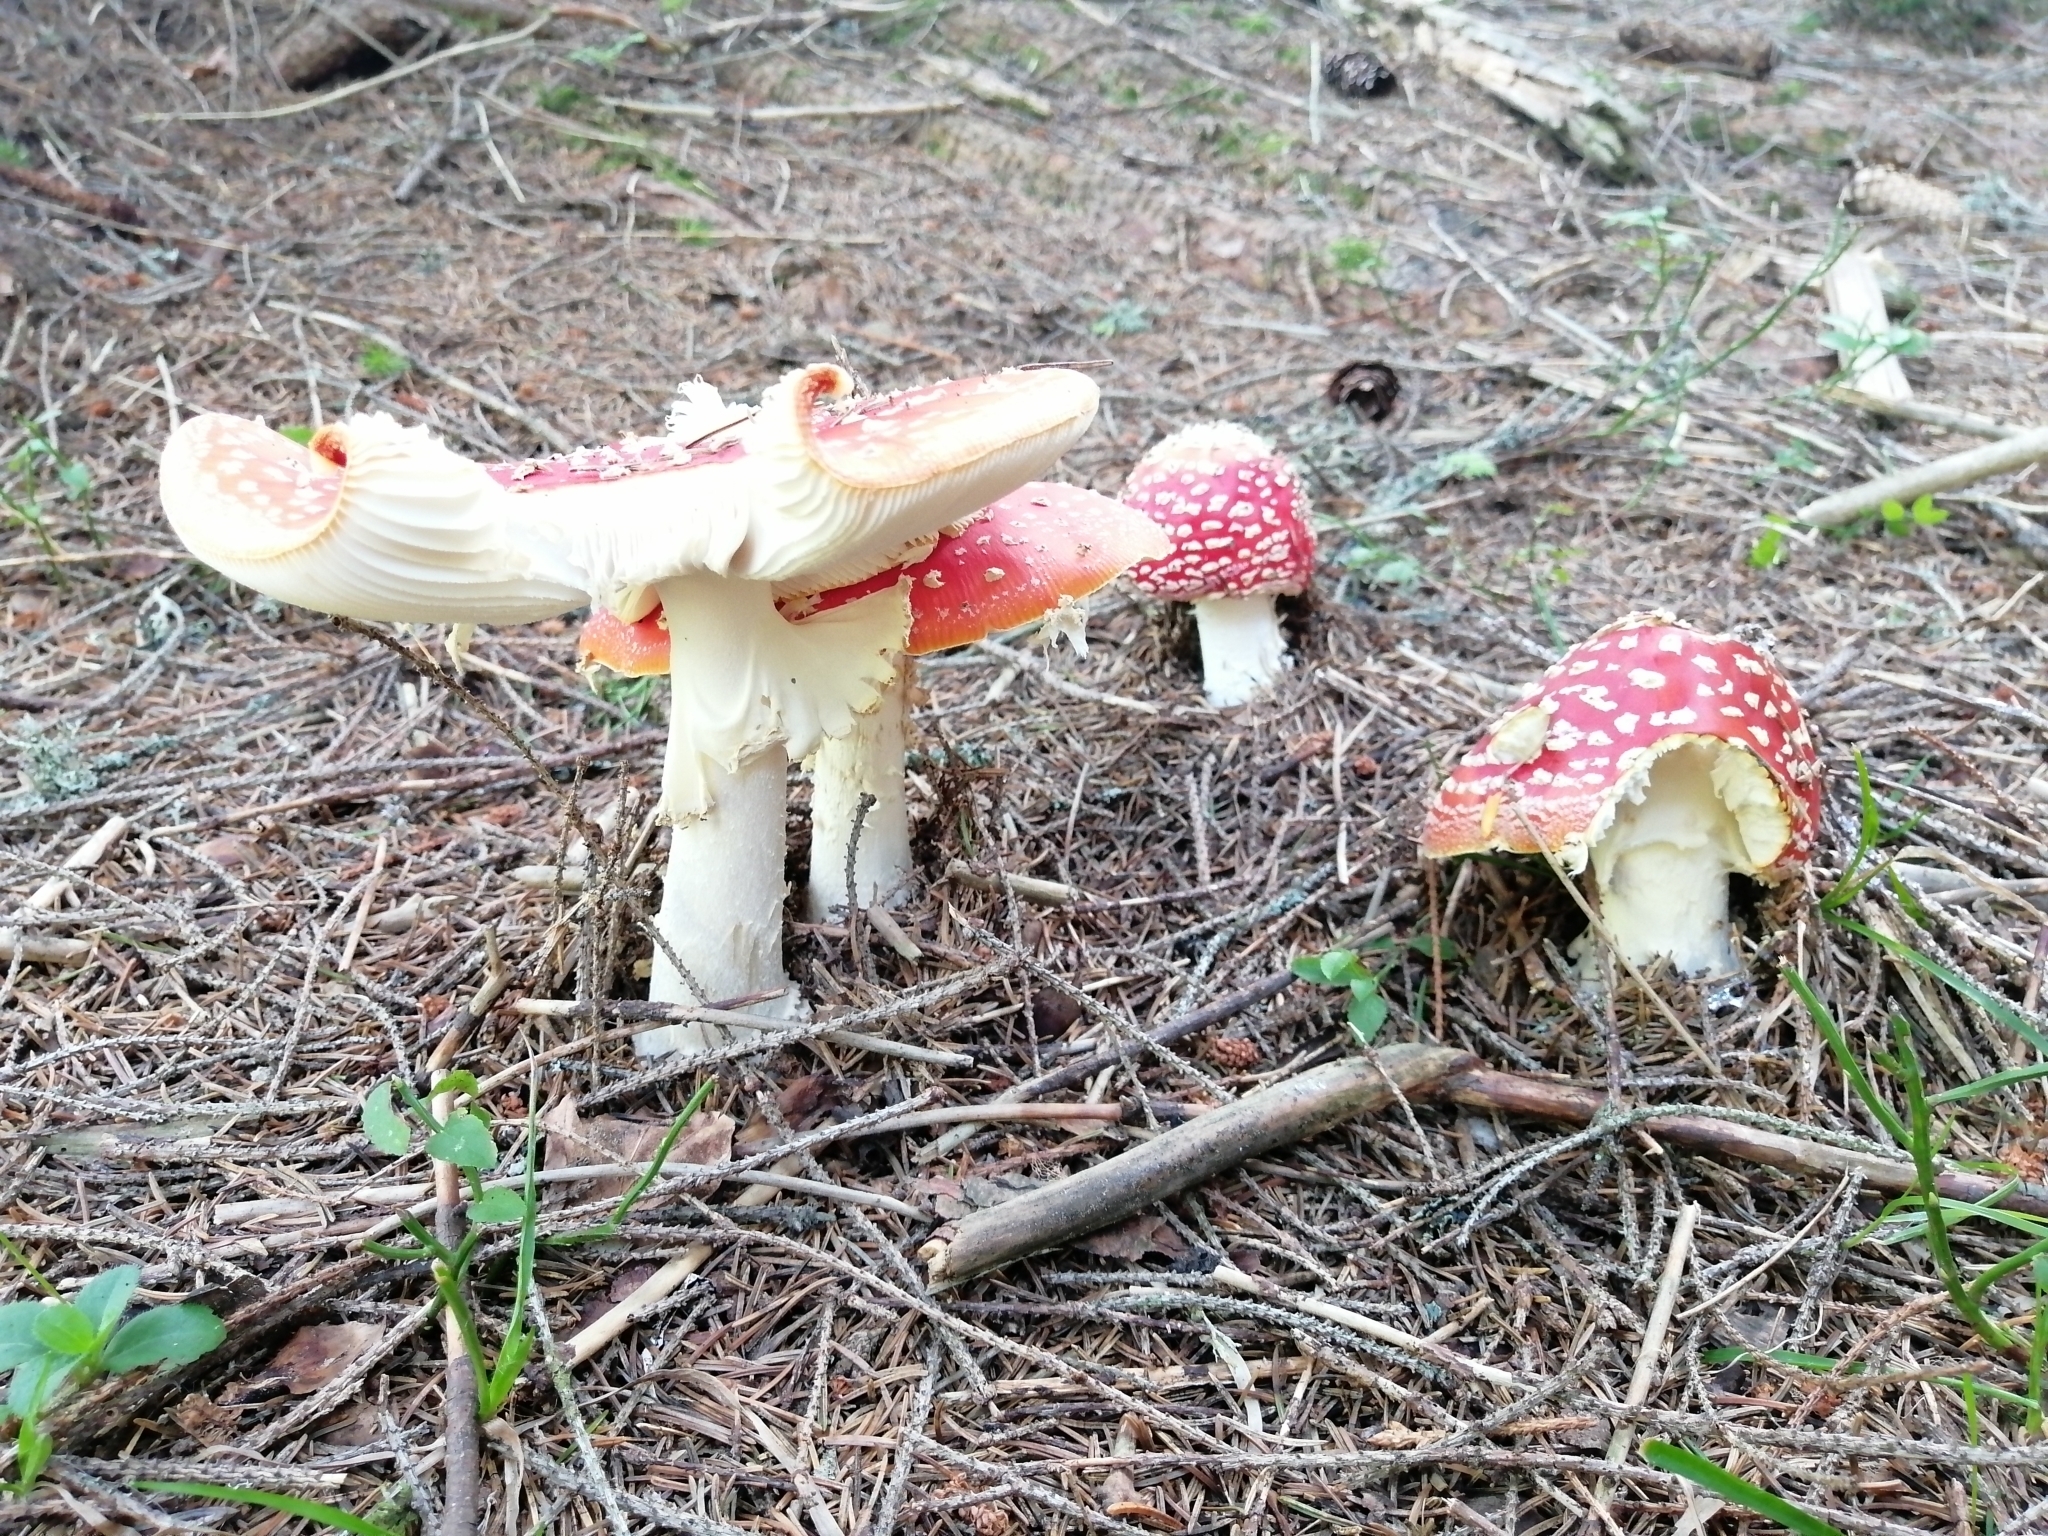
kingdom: Fungi
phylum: Basidiomycota
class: Agaricomycetes
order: Agaricales
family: Amanitaceae
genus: Amanita
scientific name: Amanita muscaria
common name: Fly agaric
